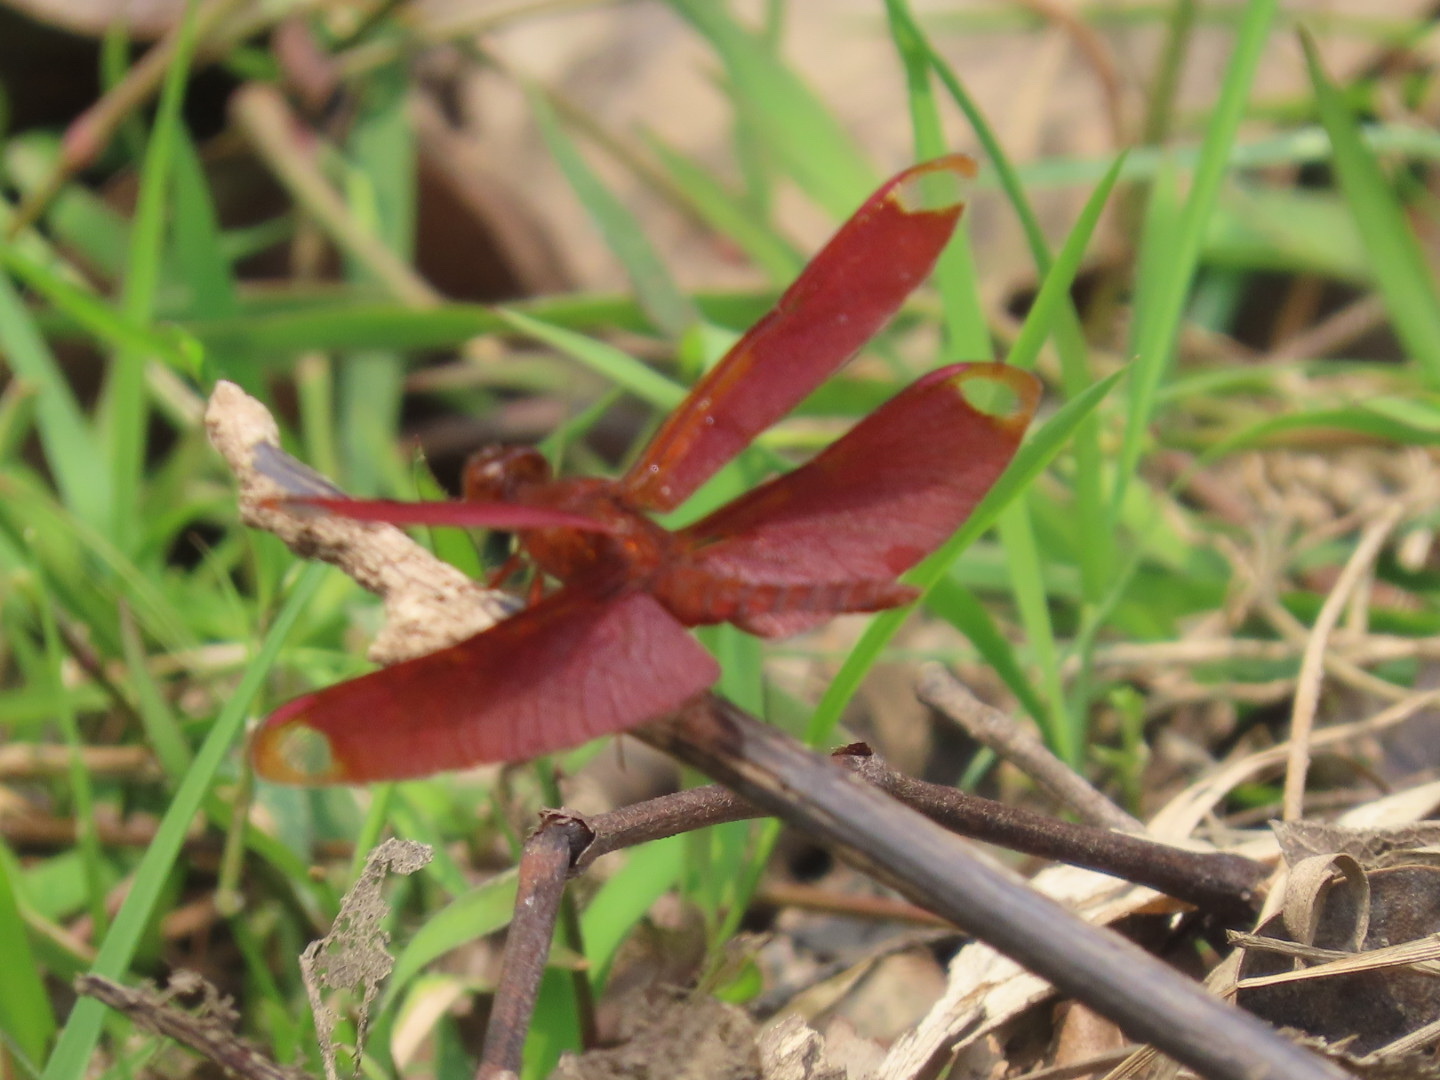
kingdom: Animalia
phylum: Arthropoda
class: Insecta
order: Odonata
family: Libellulidae
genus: Neurothemis
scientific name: Neurothemis fulvia
